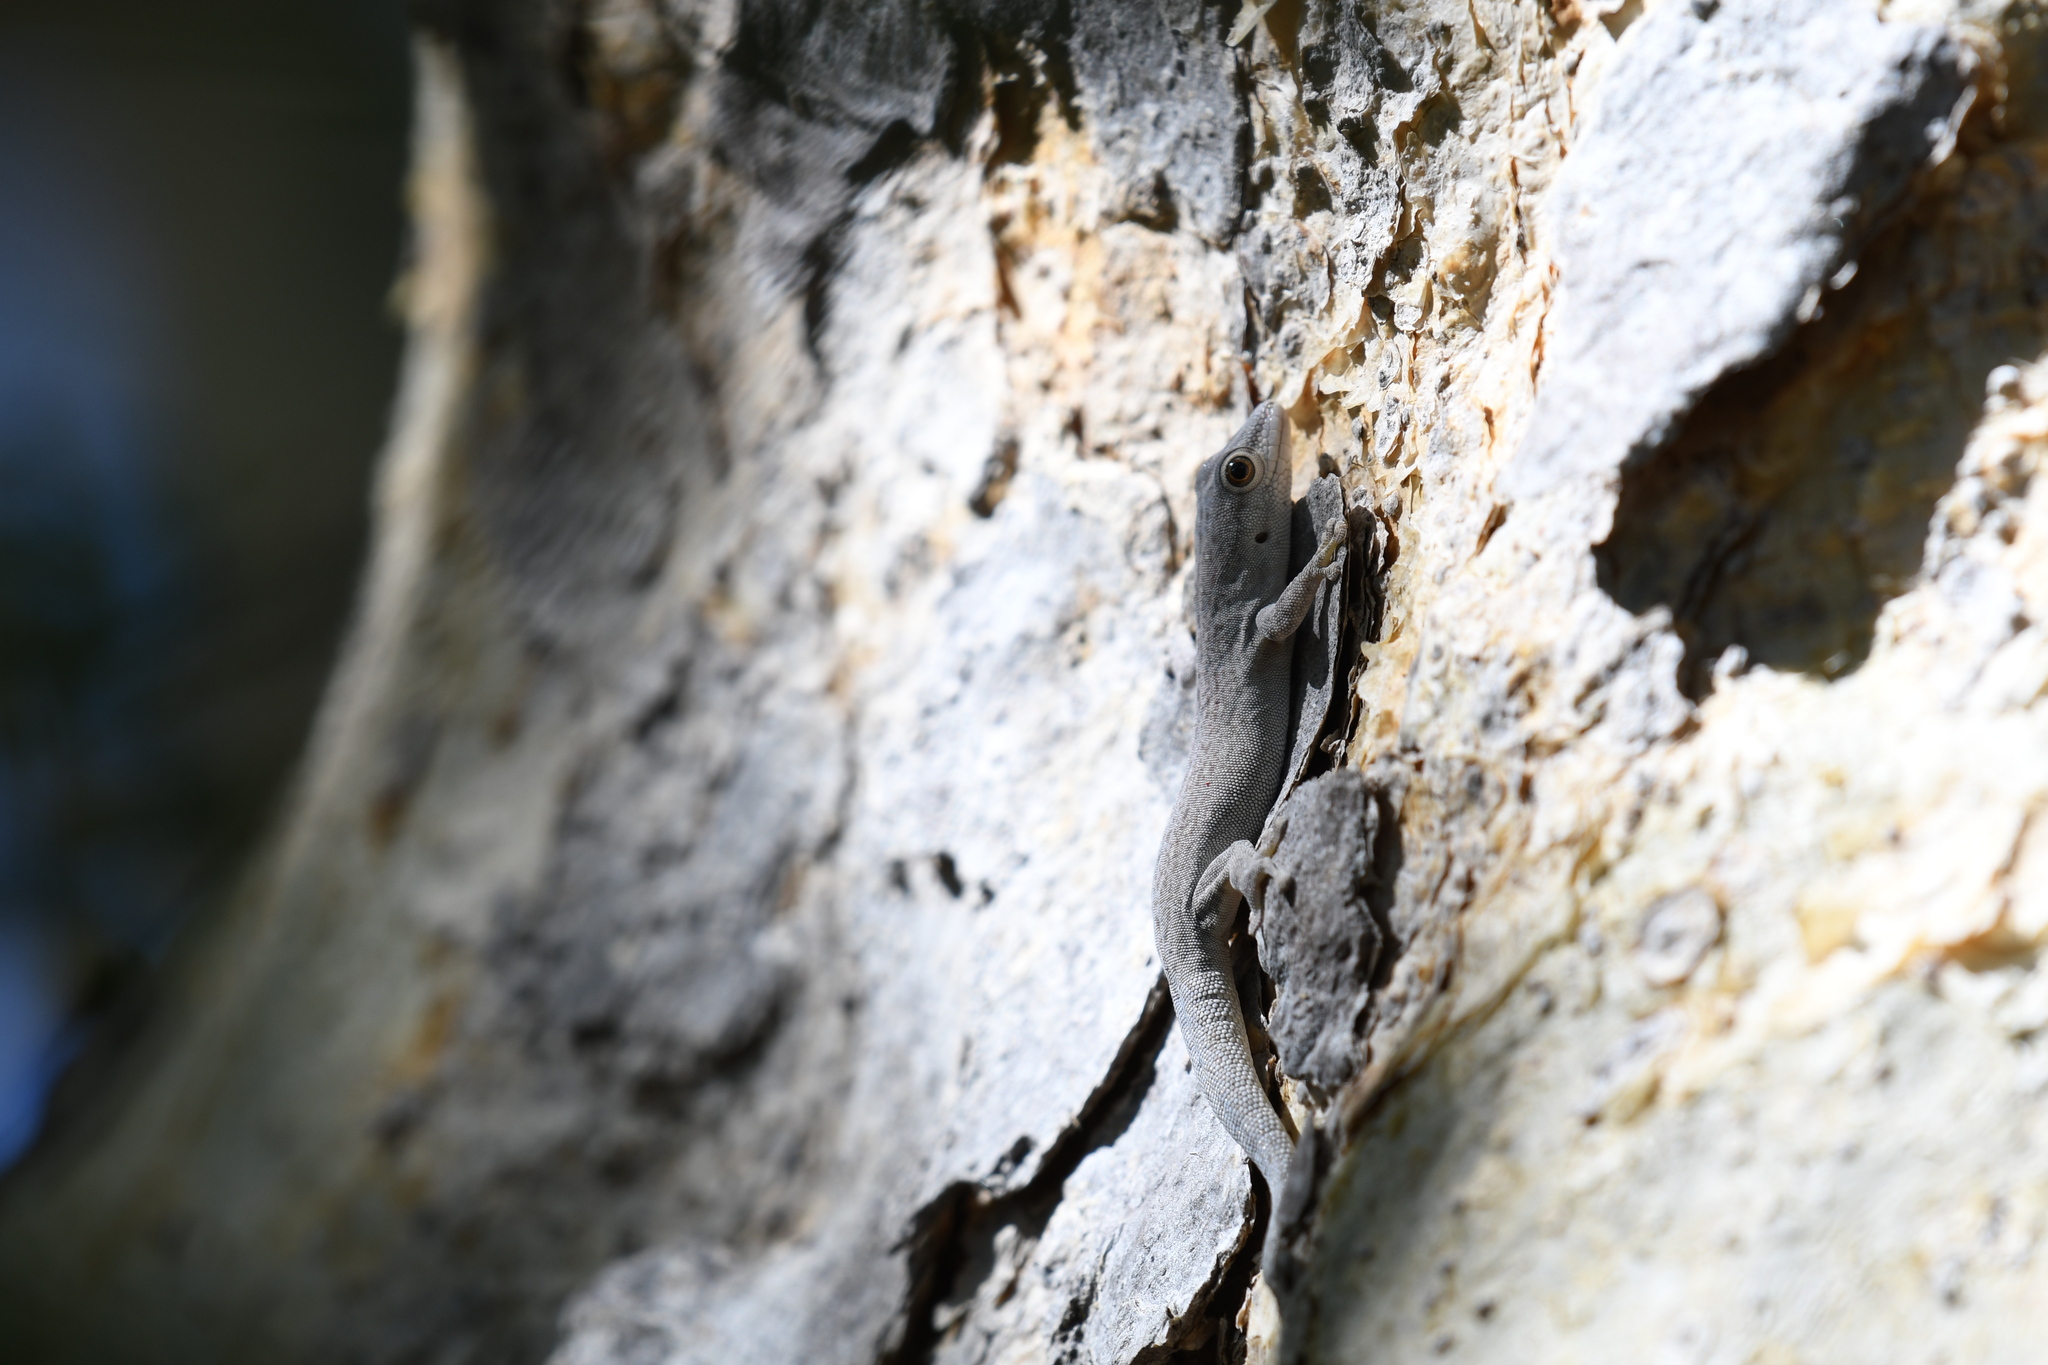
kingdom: Animalia
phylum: Chordata
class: Squamata
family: Gekkonidae
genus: Phelsuma
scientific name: Phelsuma mutabilis
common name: Thick tail gecko
